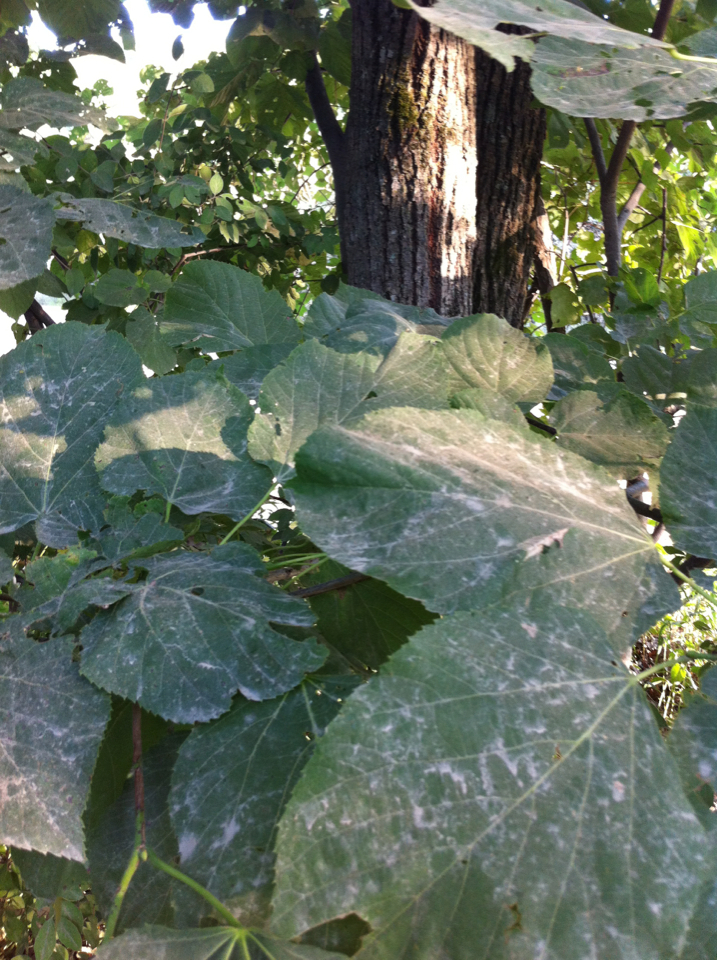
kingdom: Plantae
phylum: Tracheophyta
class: Magnoliopsida
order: Malvales
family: Malvaceae
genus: Tilia
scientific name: Tilia americana
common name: Basswood
